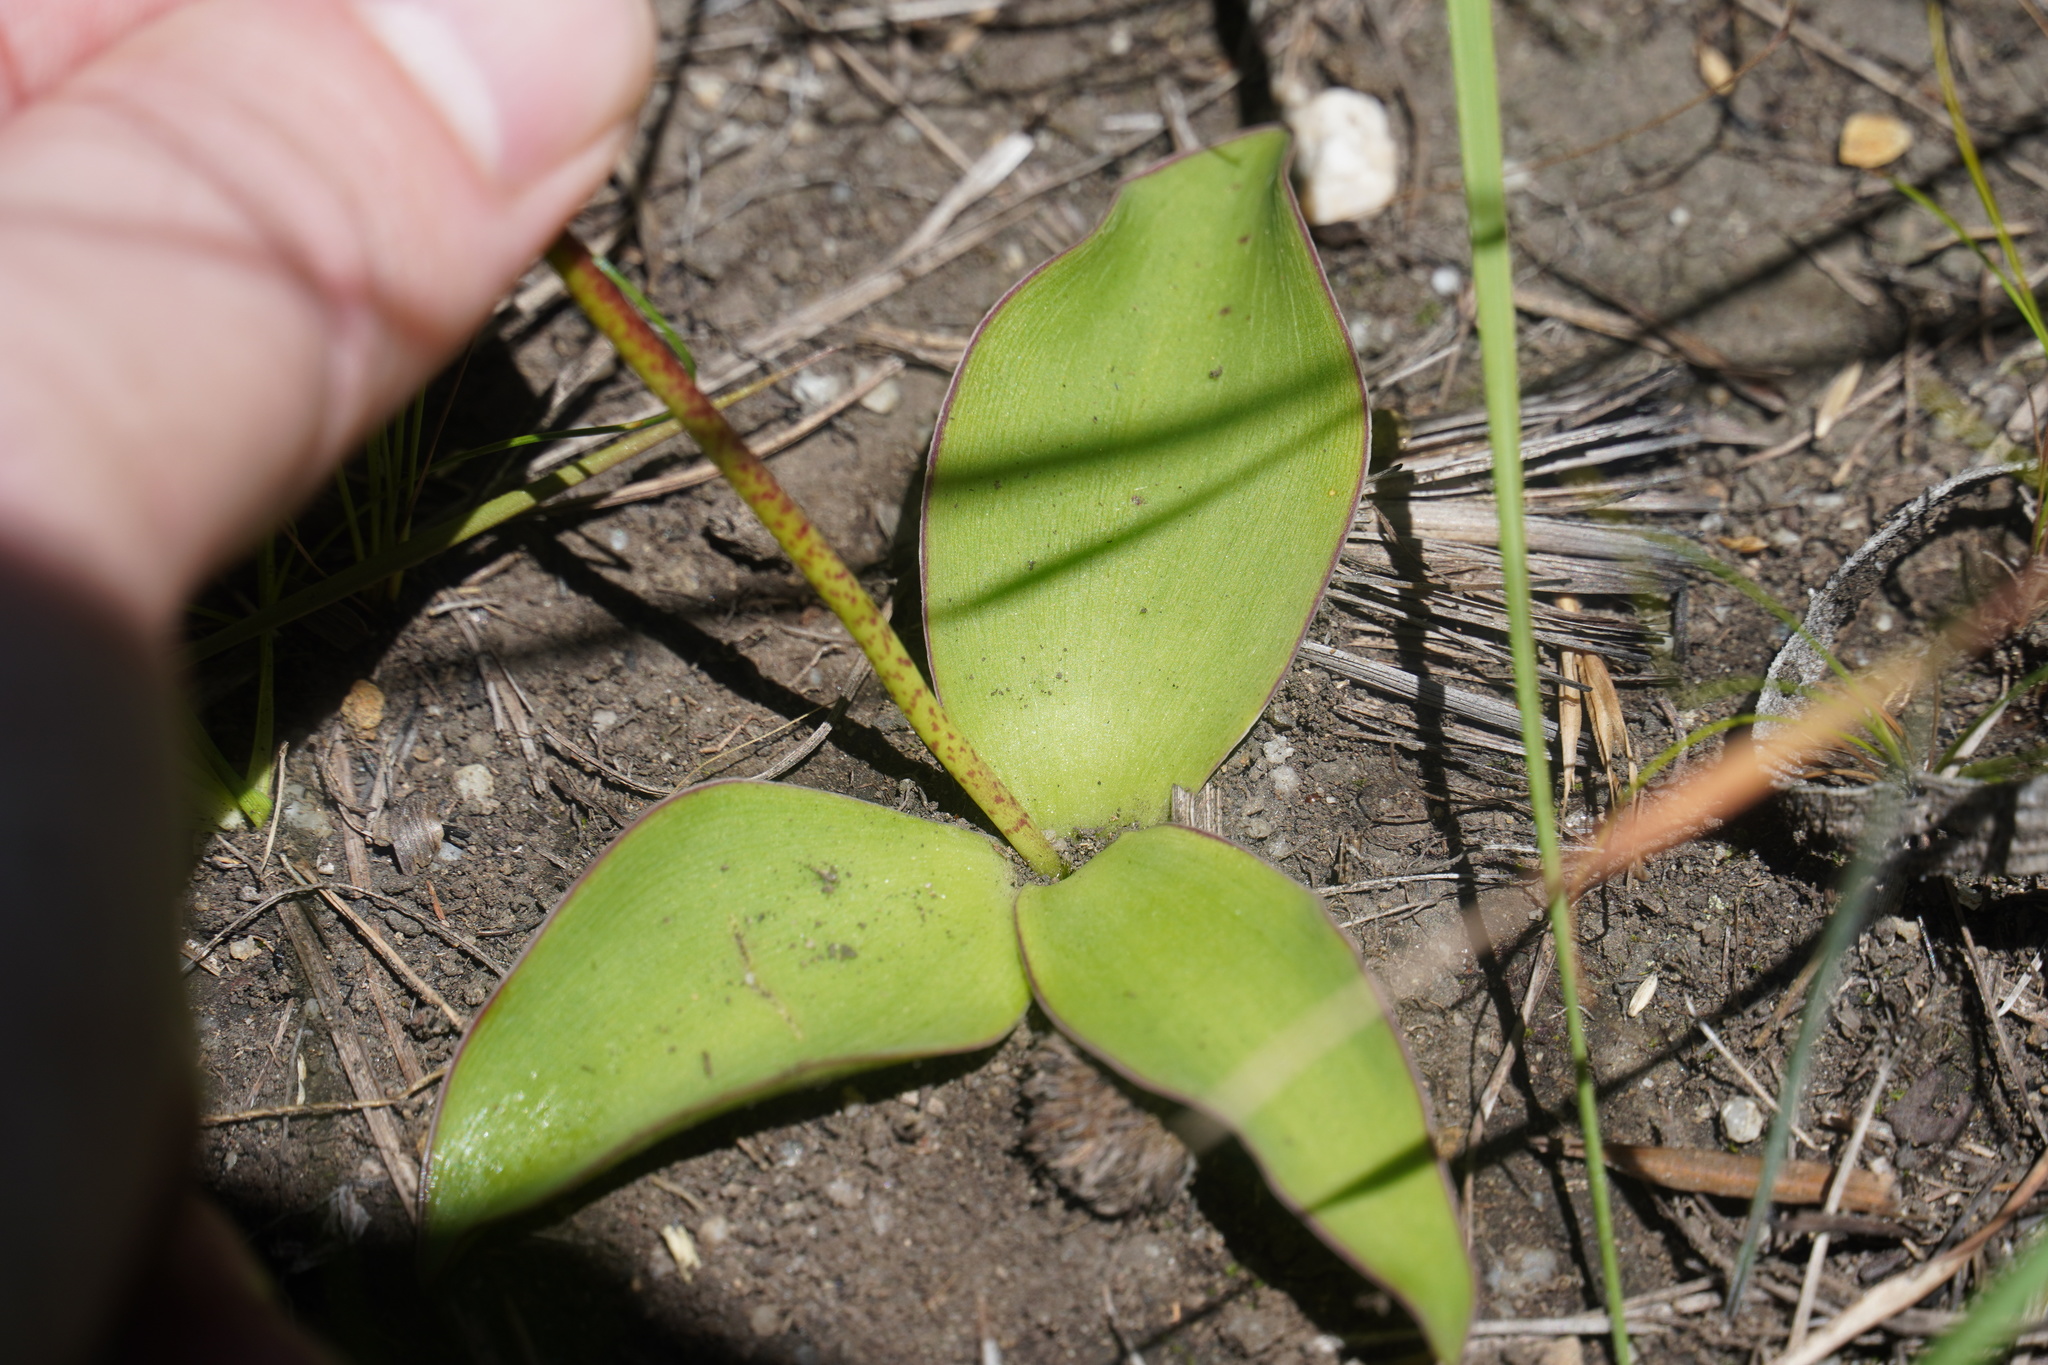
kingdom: Plantae
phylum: Tracheophyta
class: Liliopsida
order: Asparagales
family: Asparagaceae
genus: Ledebouria
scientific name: Ledebouria sandersonii
